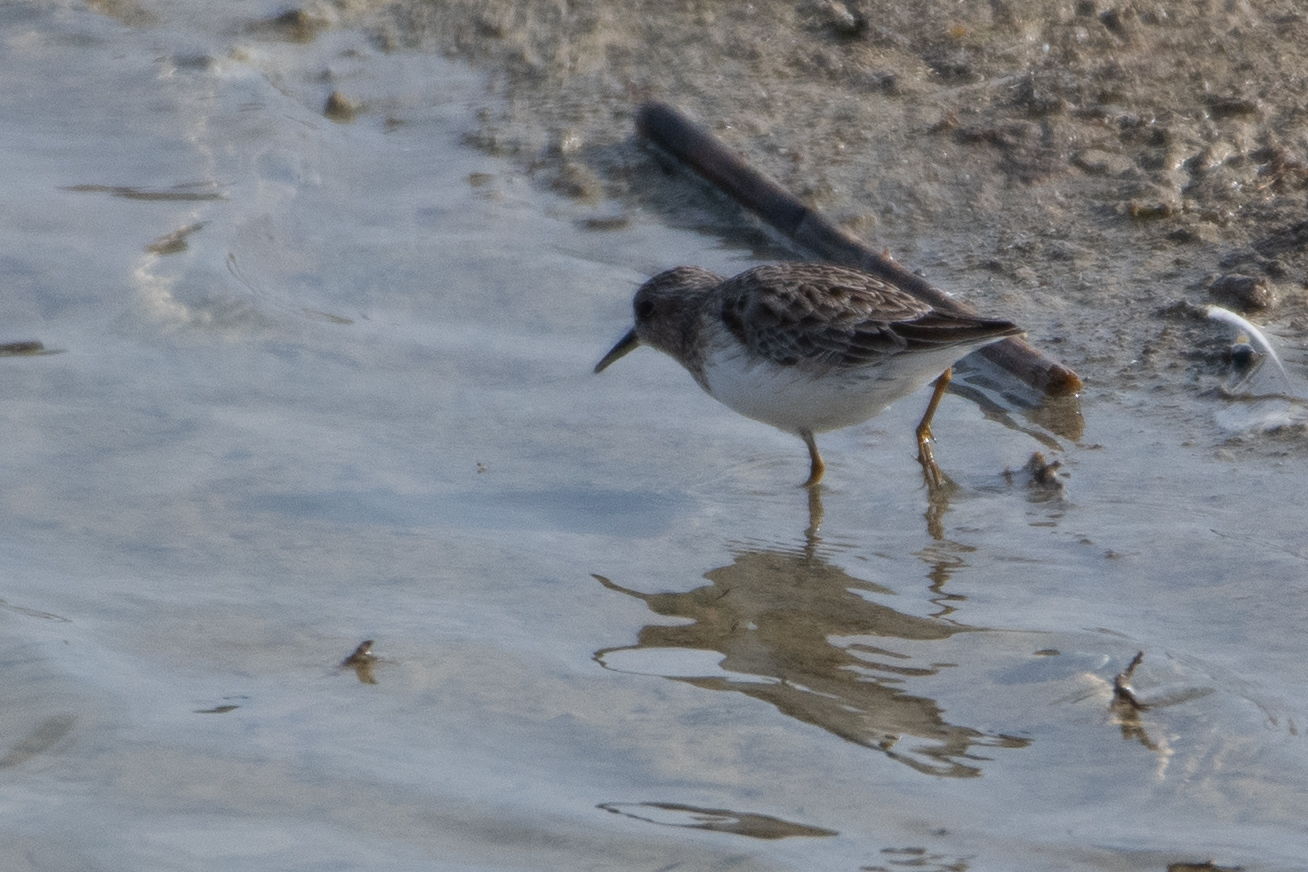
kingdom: Animalia
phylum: Chordata
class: Aves
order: Charadriiformes
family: Scolopacidae
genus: Calidris
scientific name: Calidris minutilla
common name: Least sandpiper
